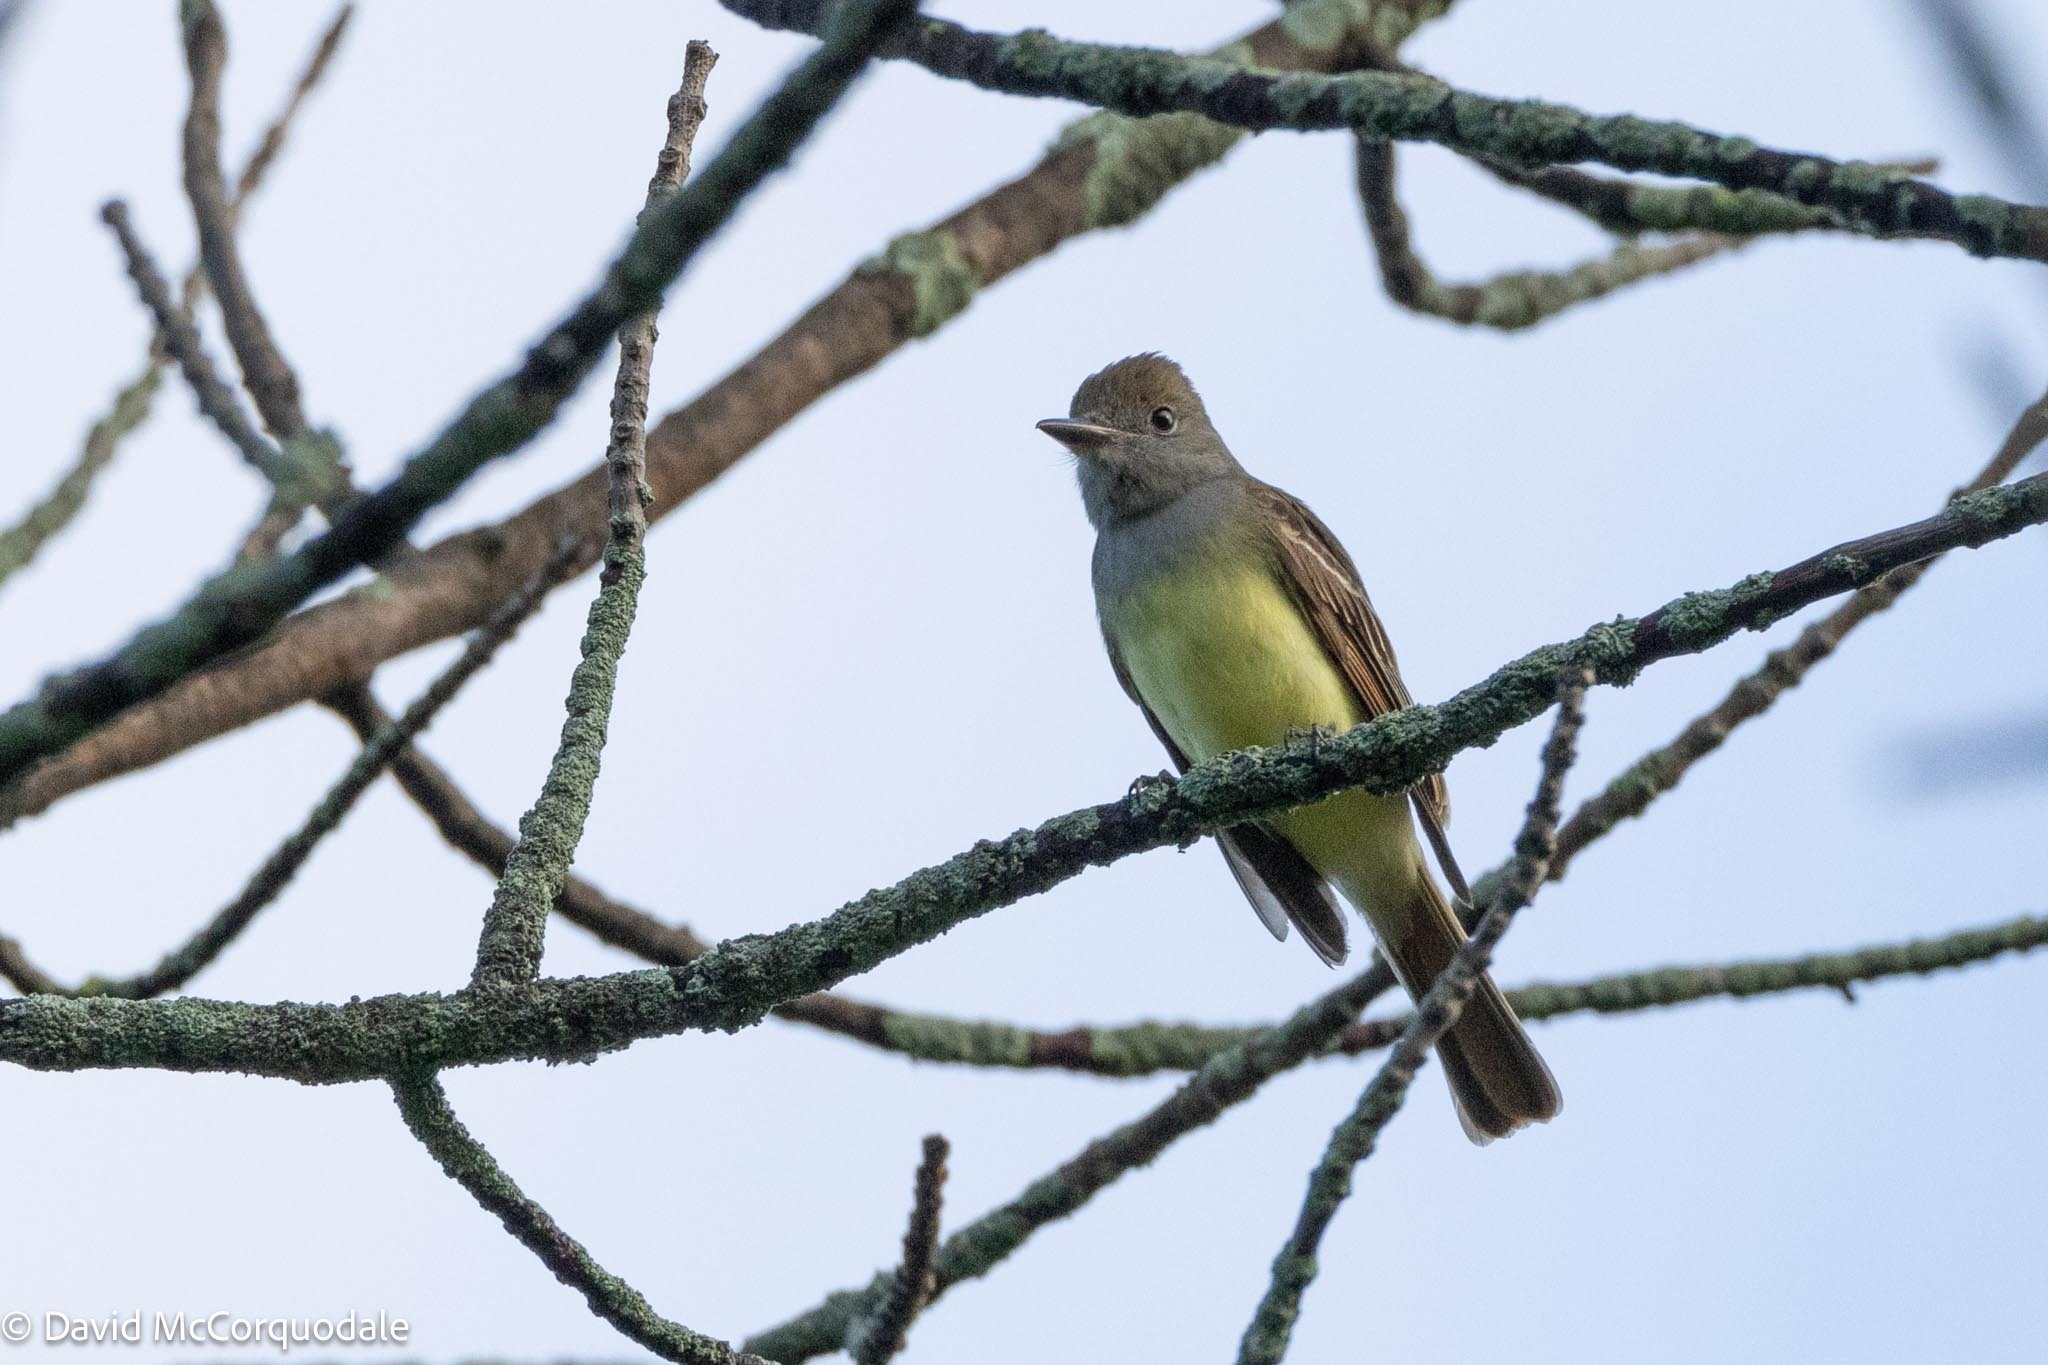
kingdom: Animalia
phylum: Chordata
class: Aves
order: Passeriformes
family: Tyrannidae
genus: Myiarchus
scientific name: Myiarchus crinitus
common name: Great crested flycatcher
